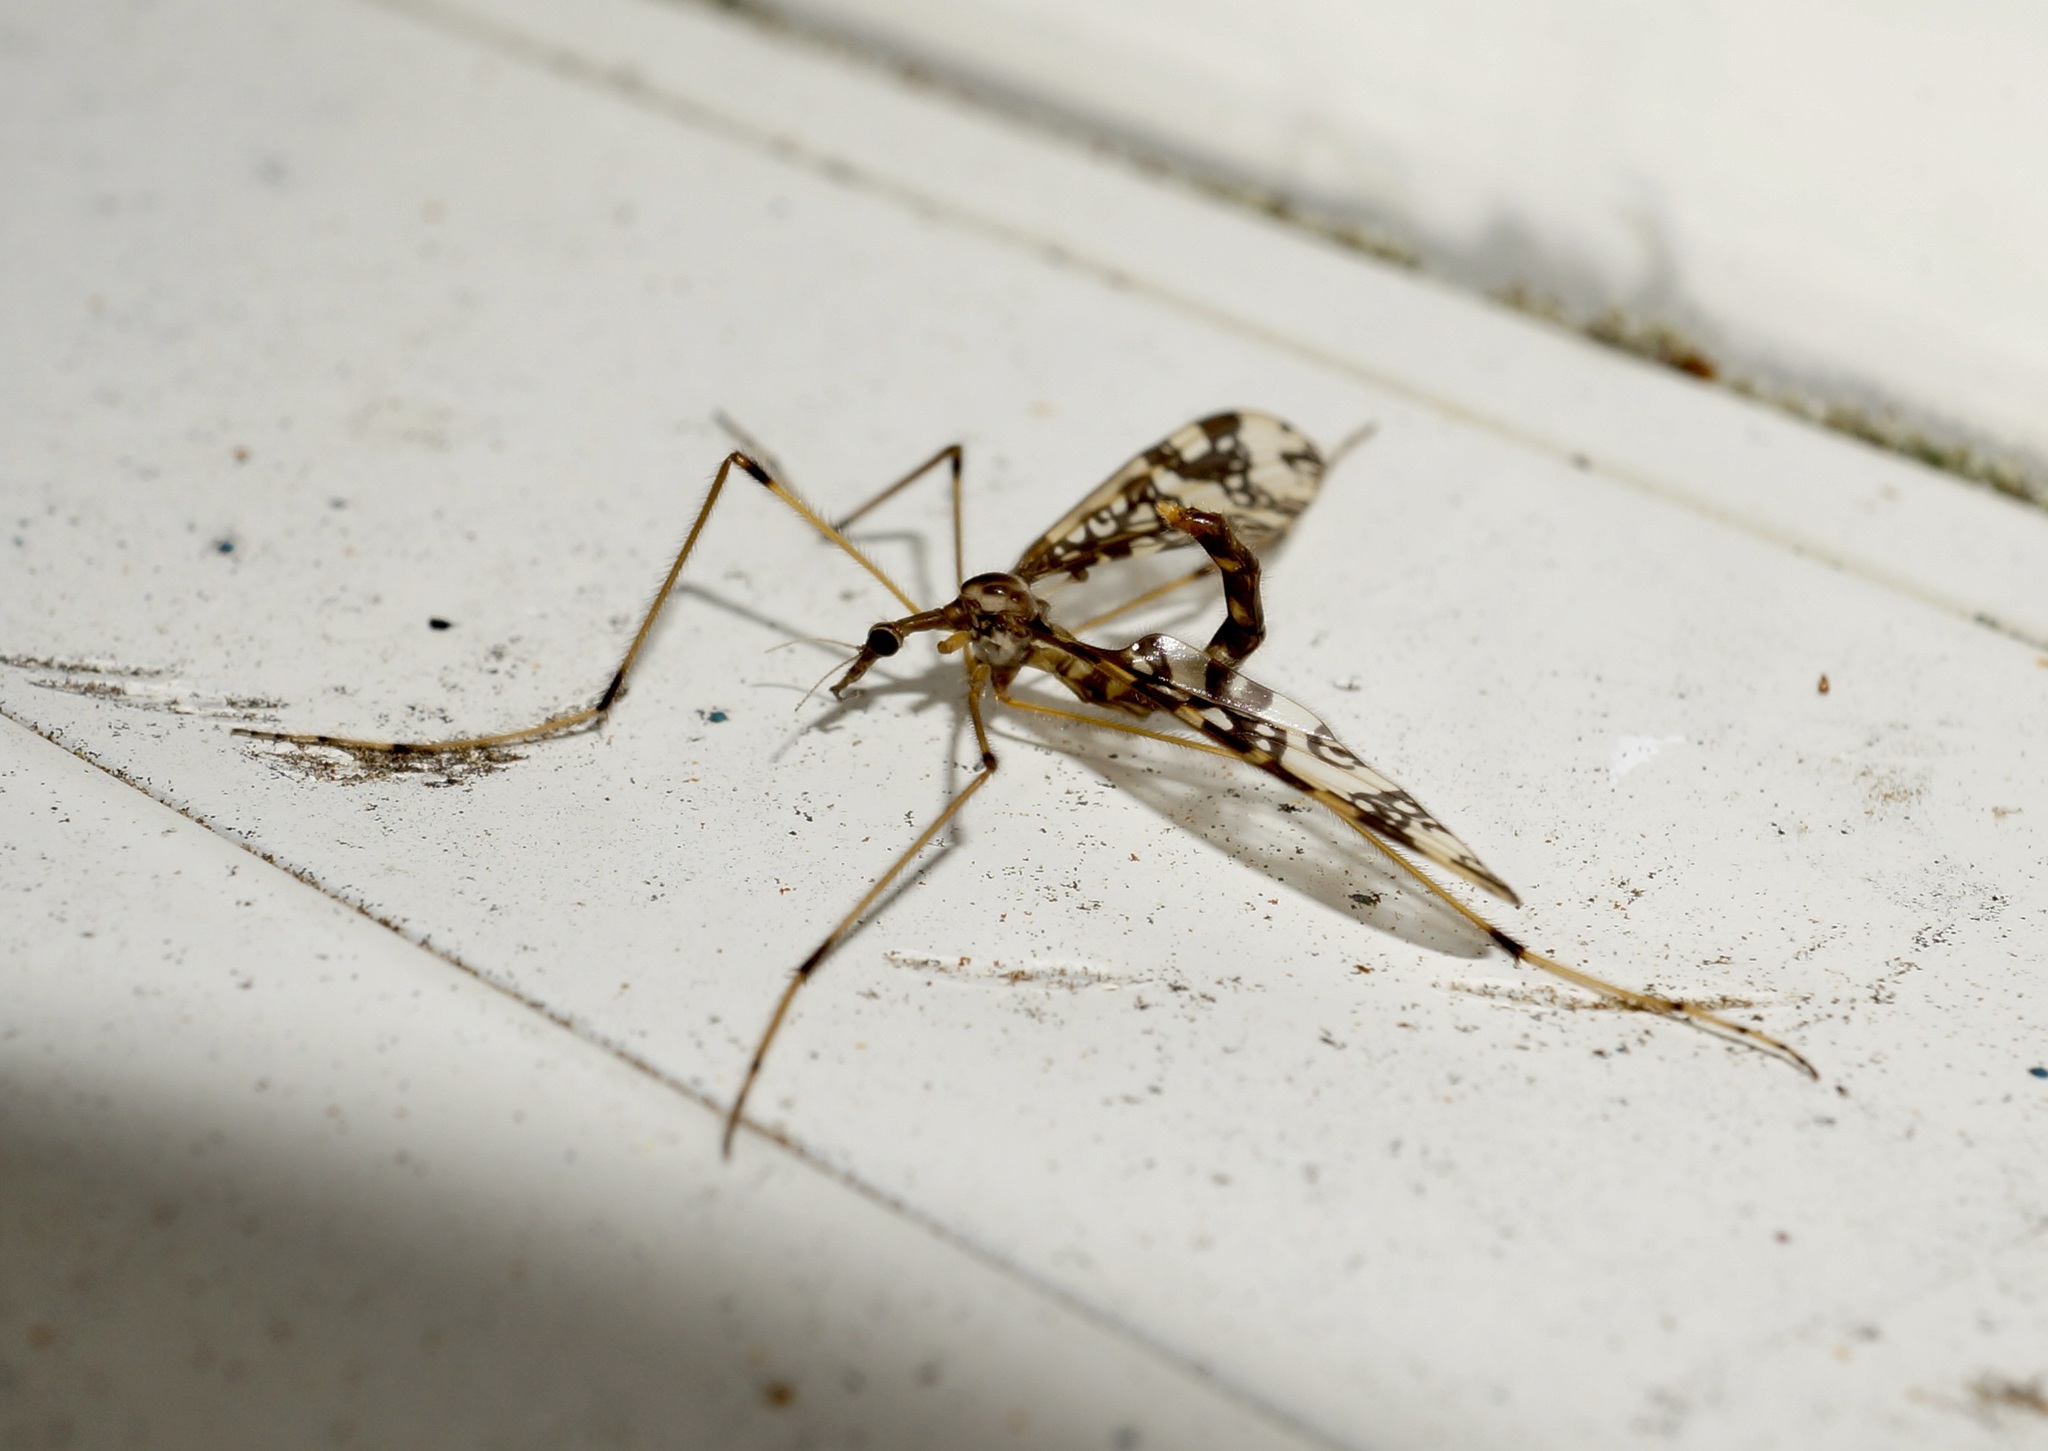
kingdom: Animalia
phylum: Arthropoda
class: Insecta
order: Diptera
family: Tanyderidae
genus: Tanyderus
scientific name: Tanyderus annuliferus
